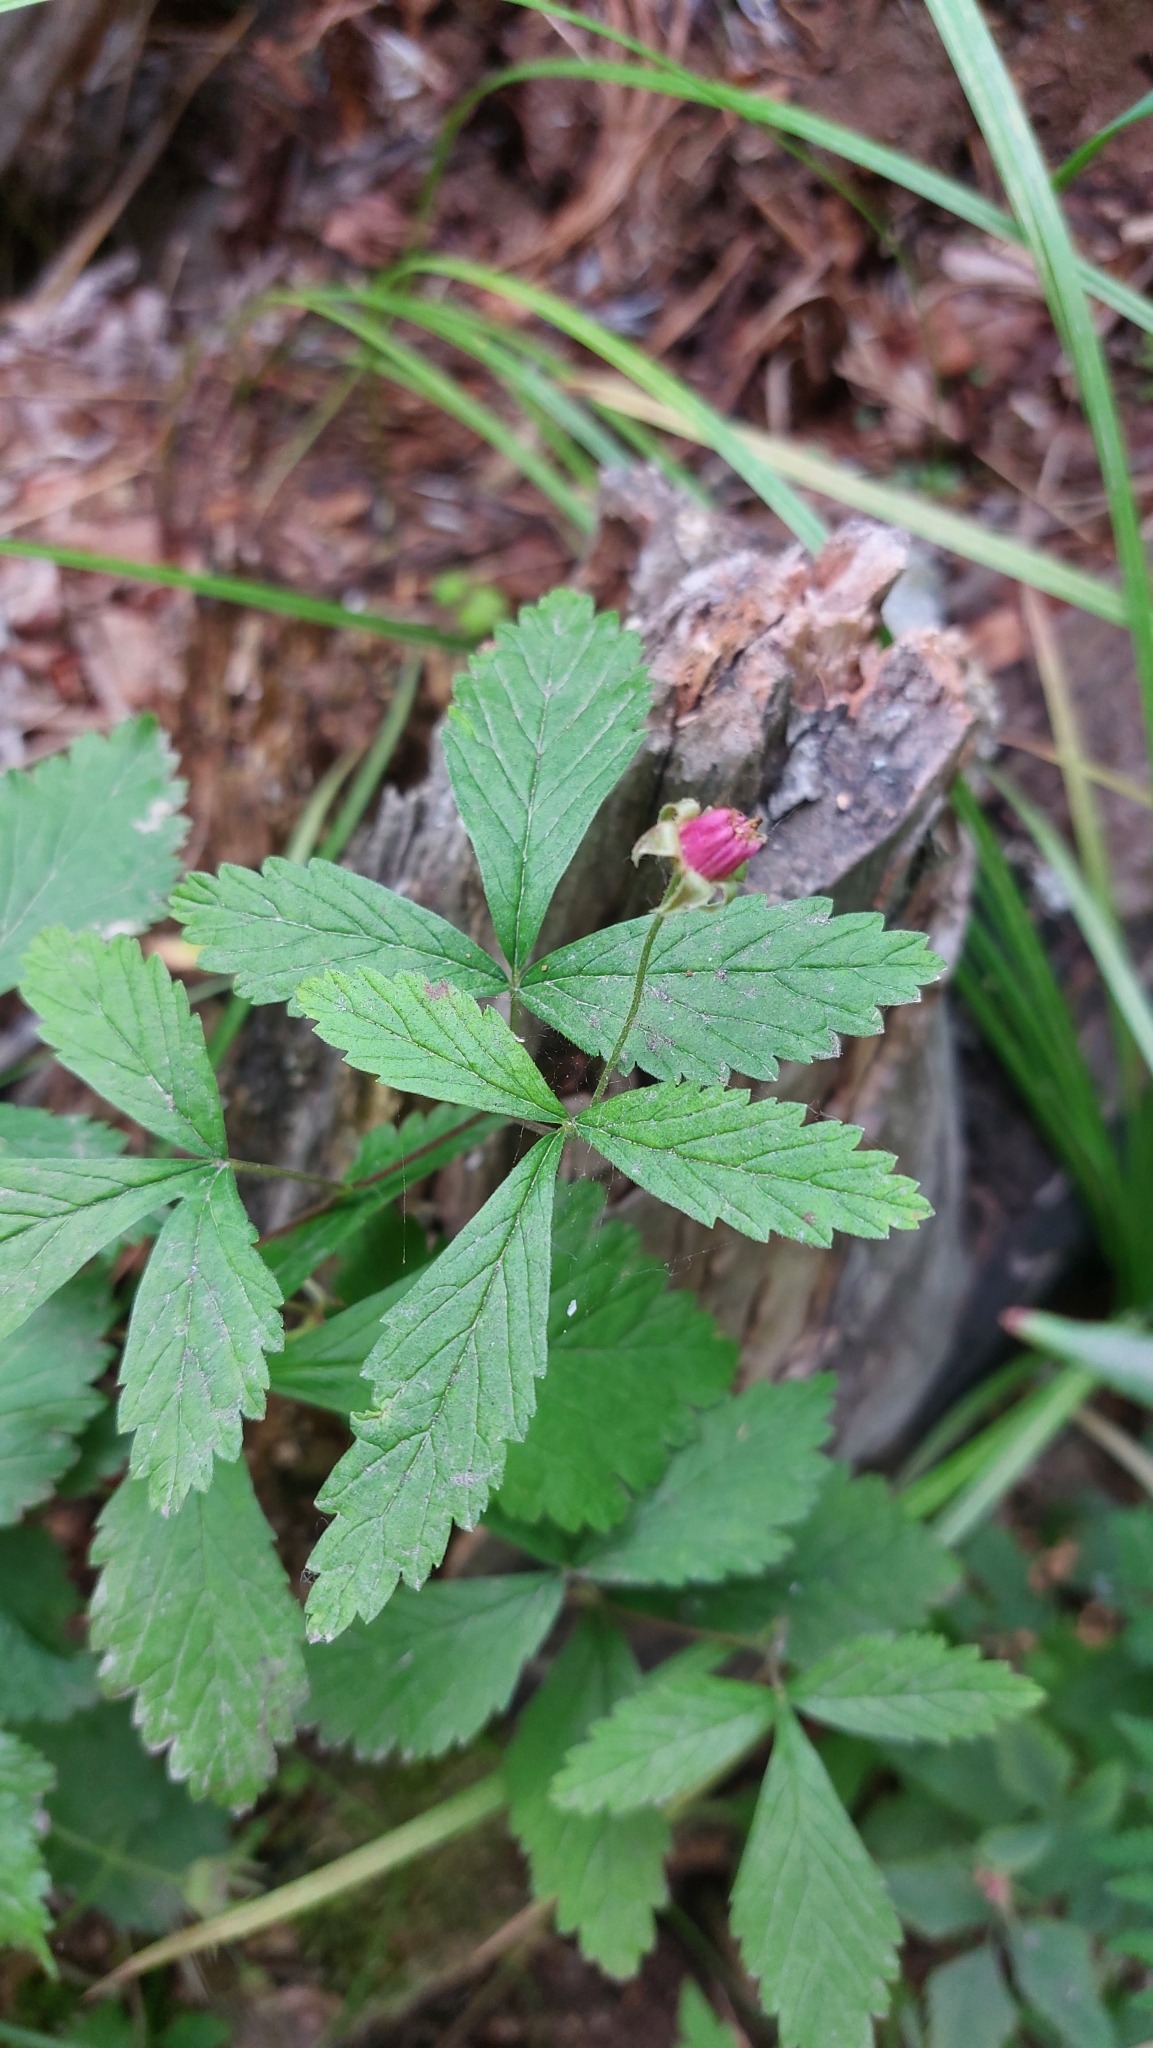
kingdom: Plantae
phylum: Tracheophyta
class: Magnoliopsida
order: Rosales
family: Rosaceae
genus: Rubus
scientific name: Rubus arcticus
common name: Arctic bramble
